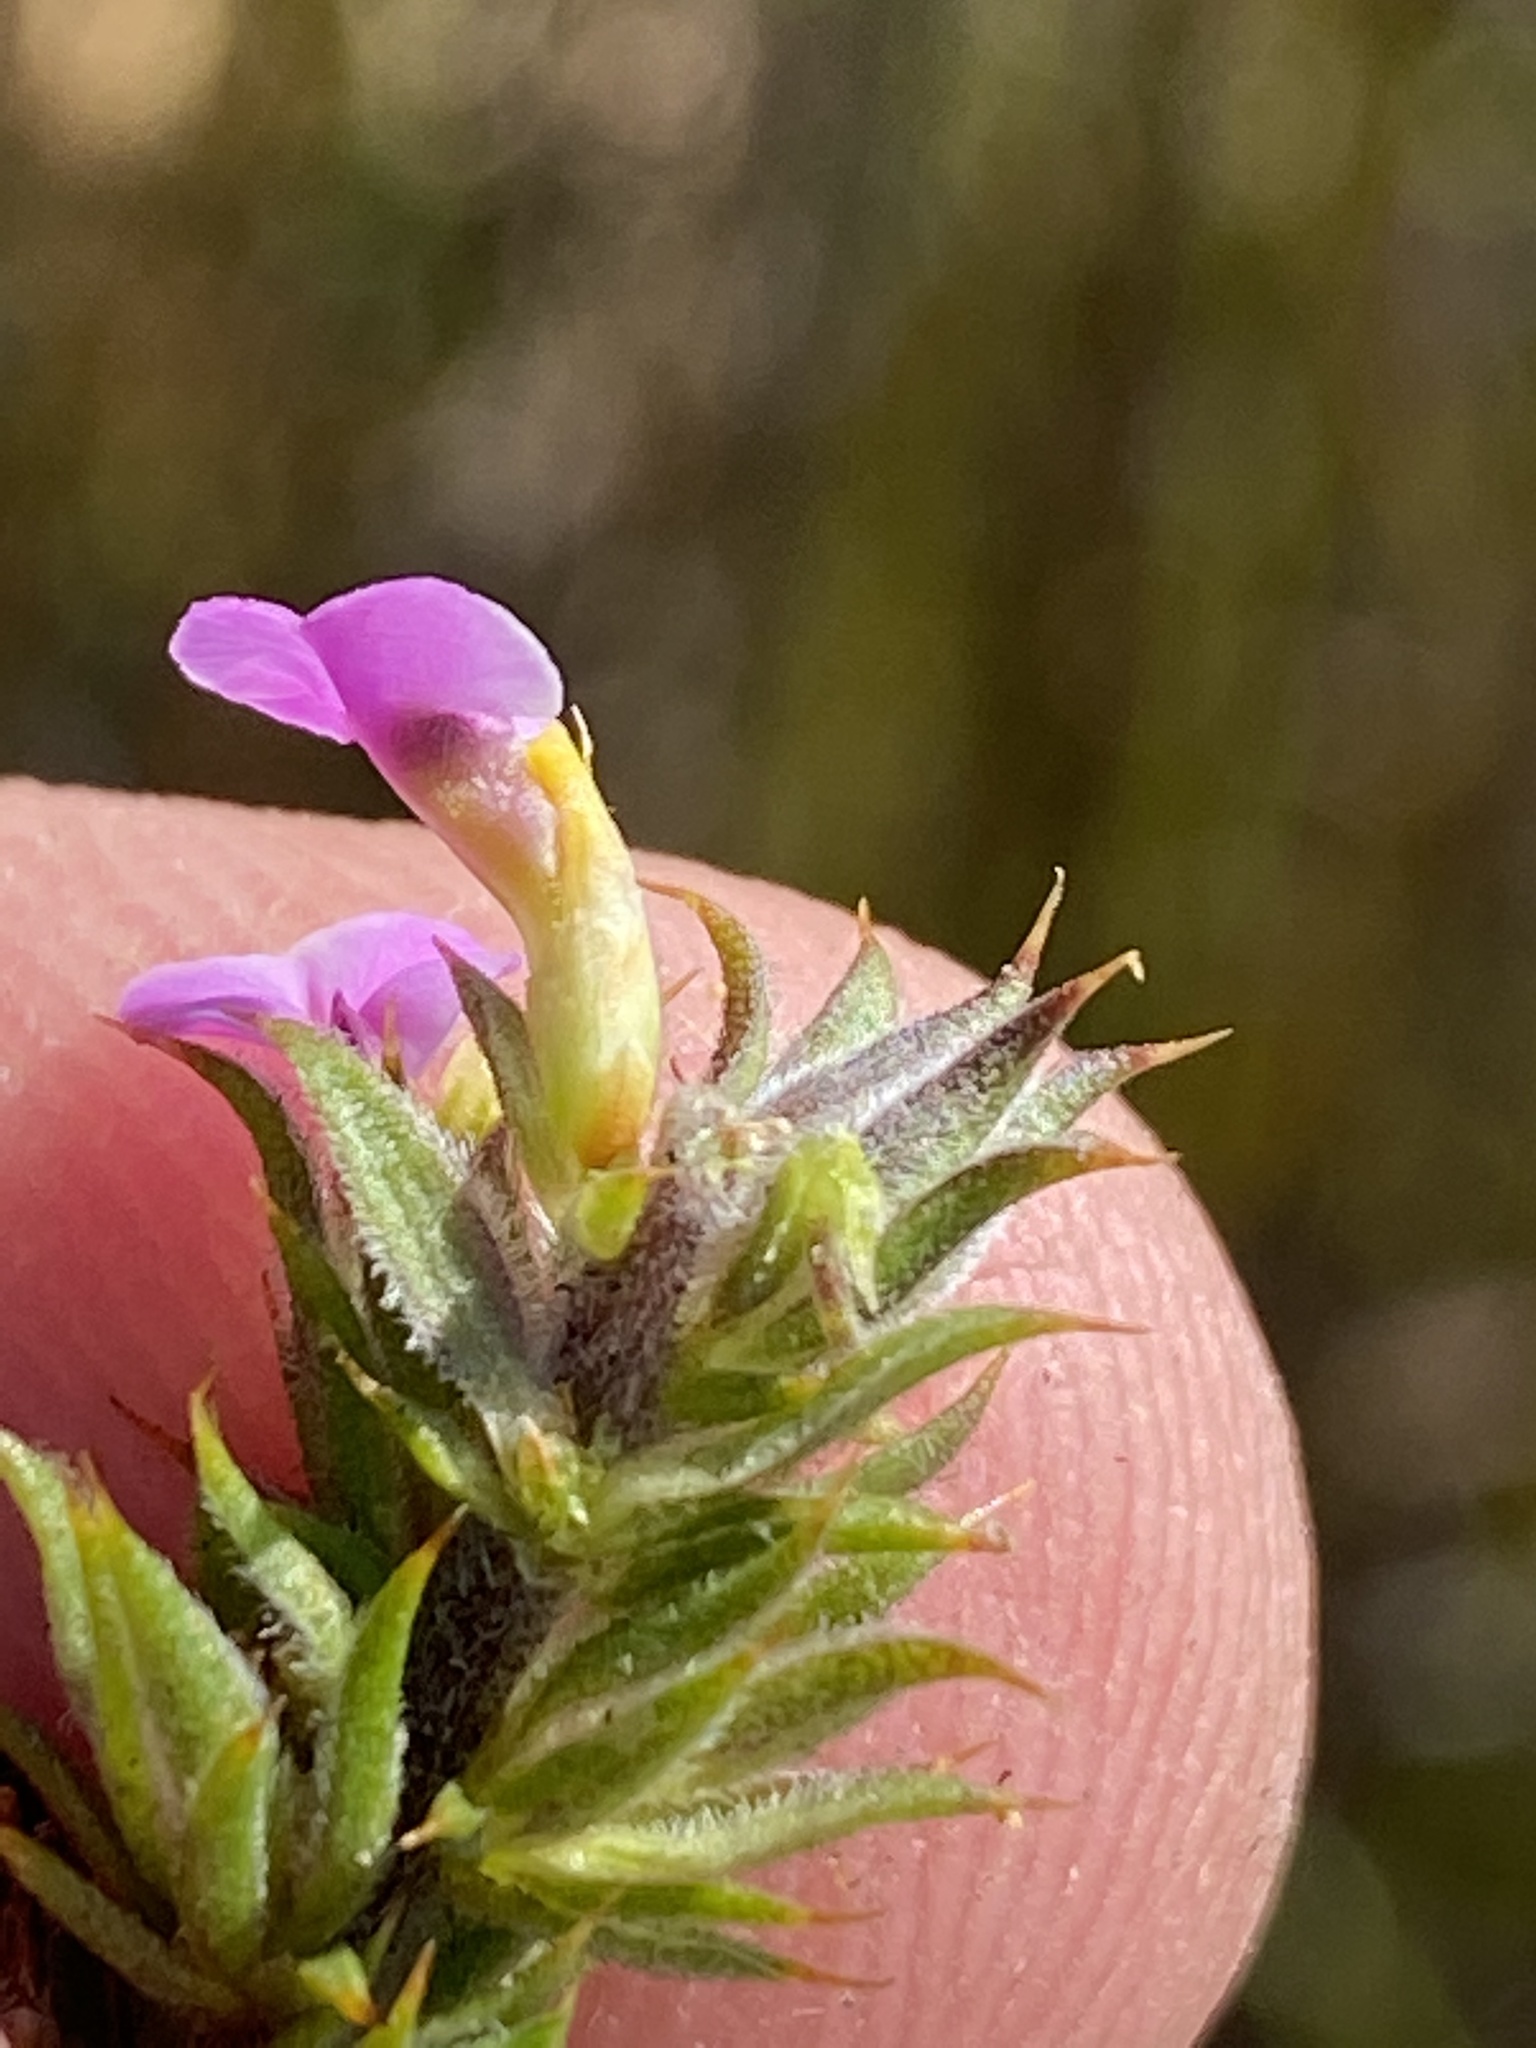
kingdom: Plantae
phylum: Tracheophyta
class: Magnoliopsida
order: Fabales
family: Polygalaceae
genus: Muraltia
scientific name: Muraltia squarrosa
